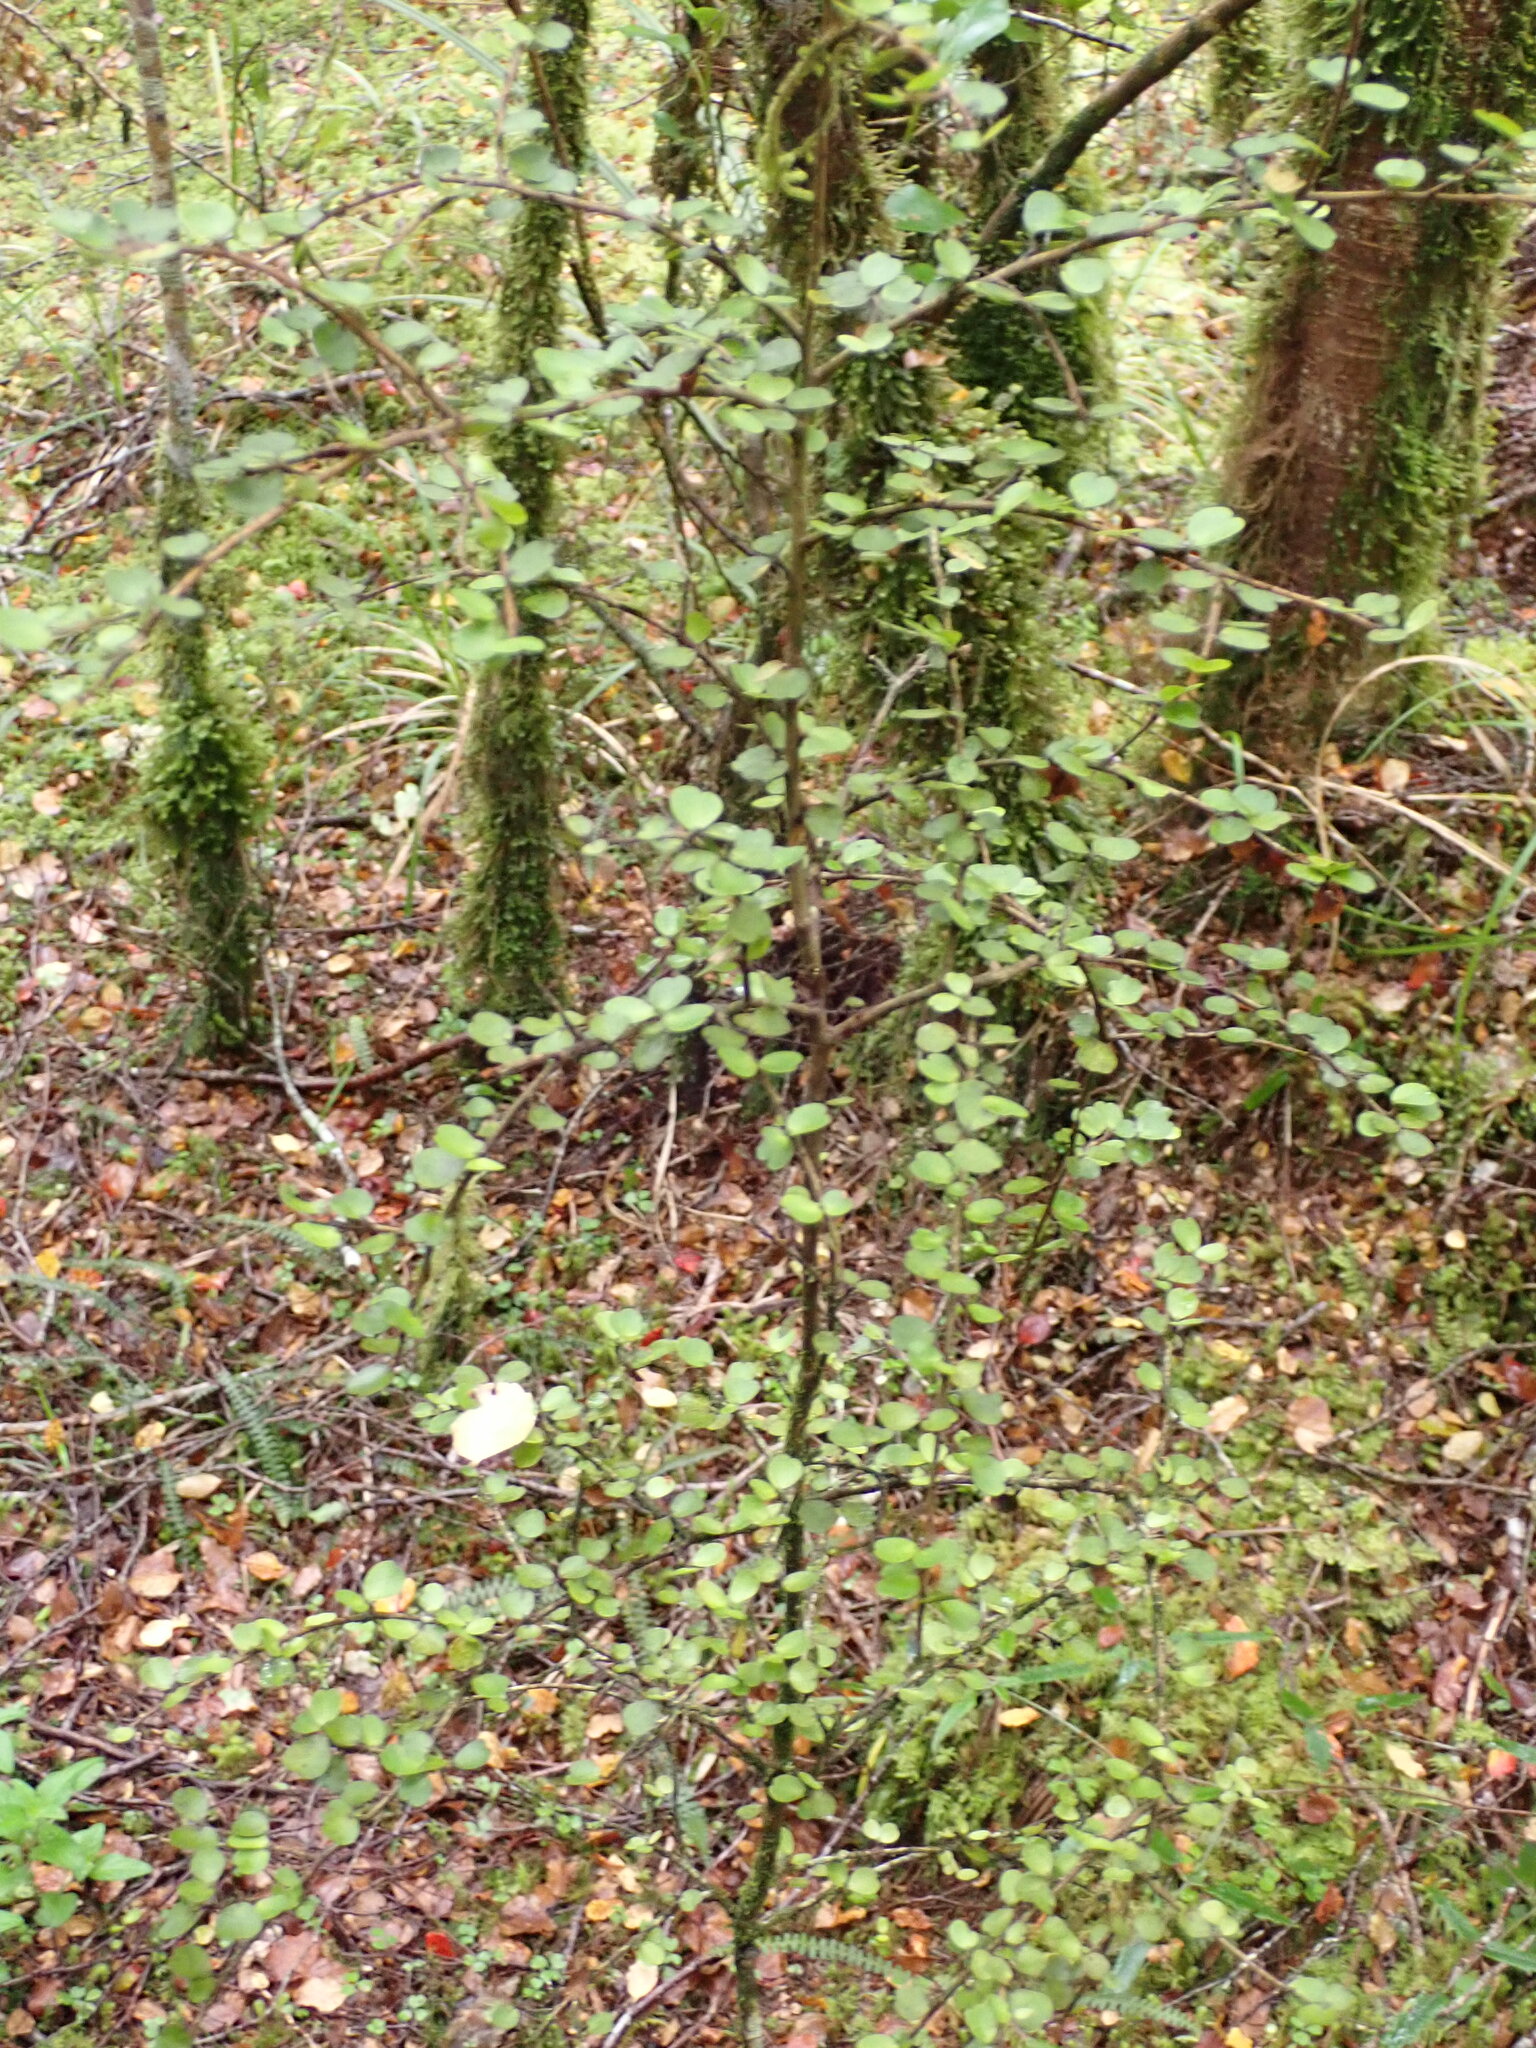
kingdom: Plantae
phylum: Tracheophyta
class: Magnoliopsida
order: Ericales
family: Primulaceae
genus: Myrsine
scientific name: Myrsine divaricata
